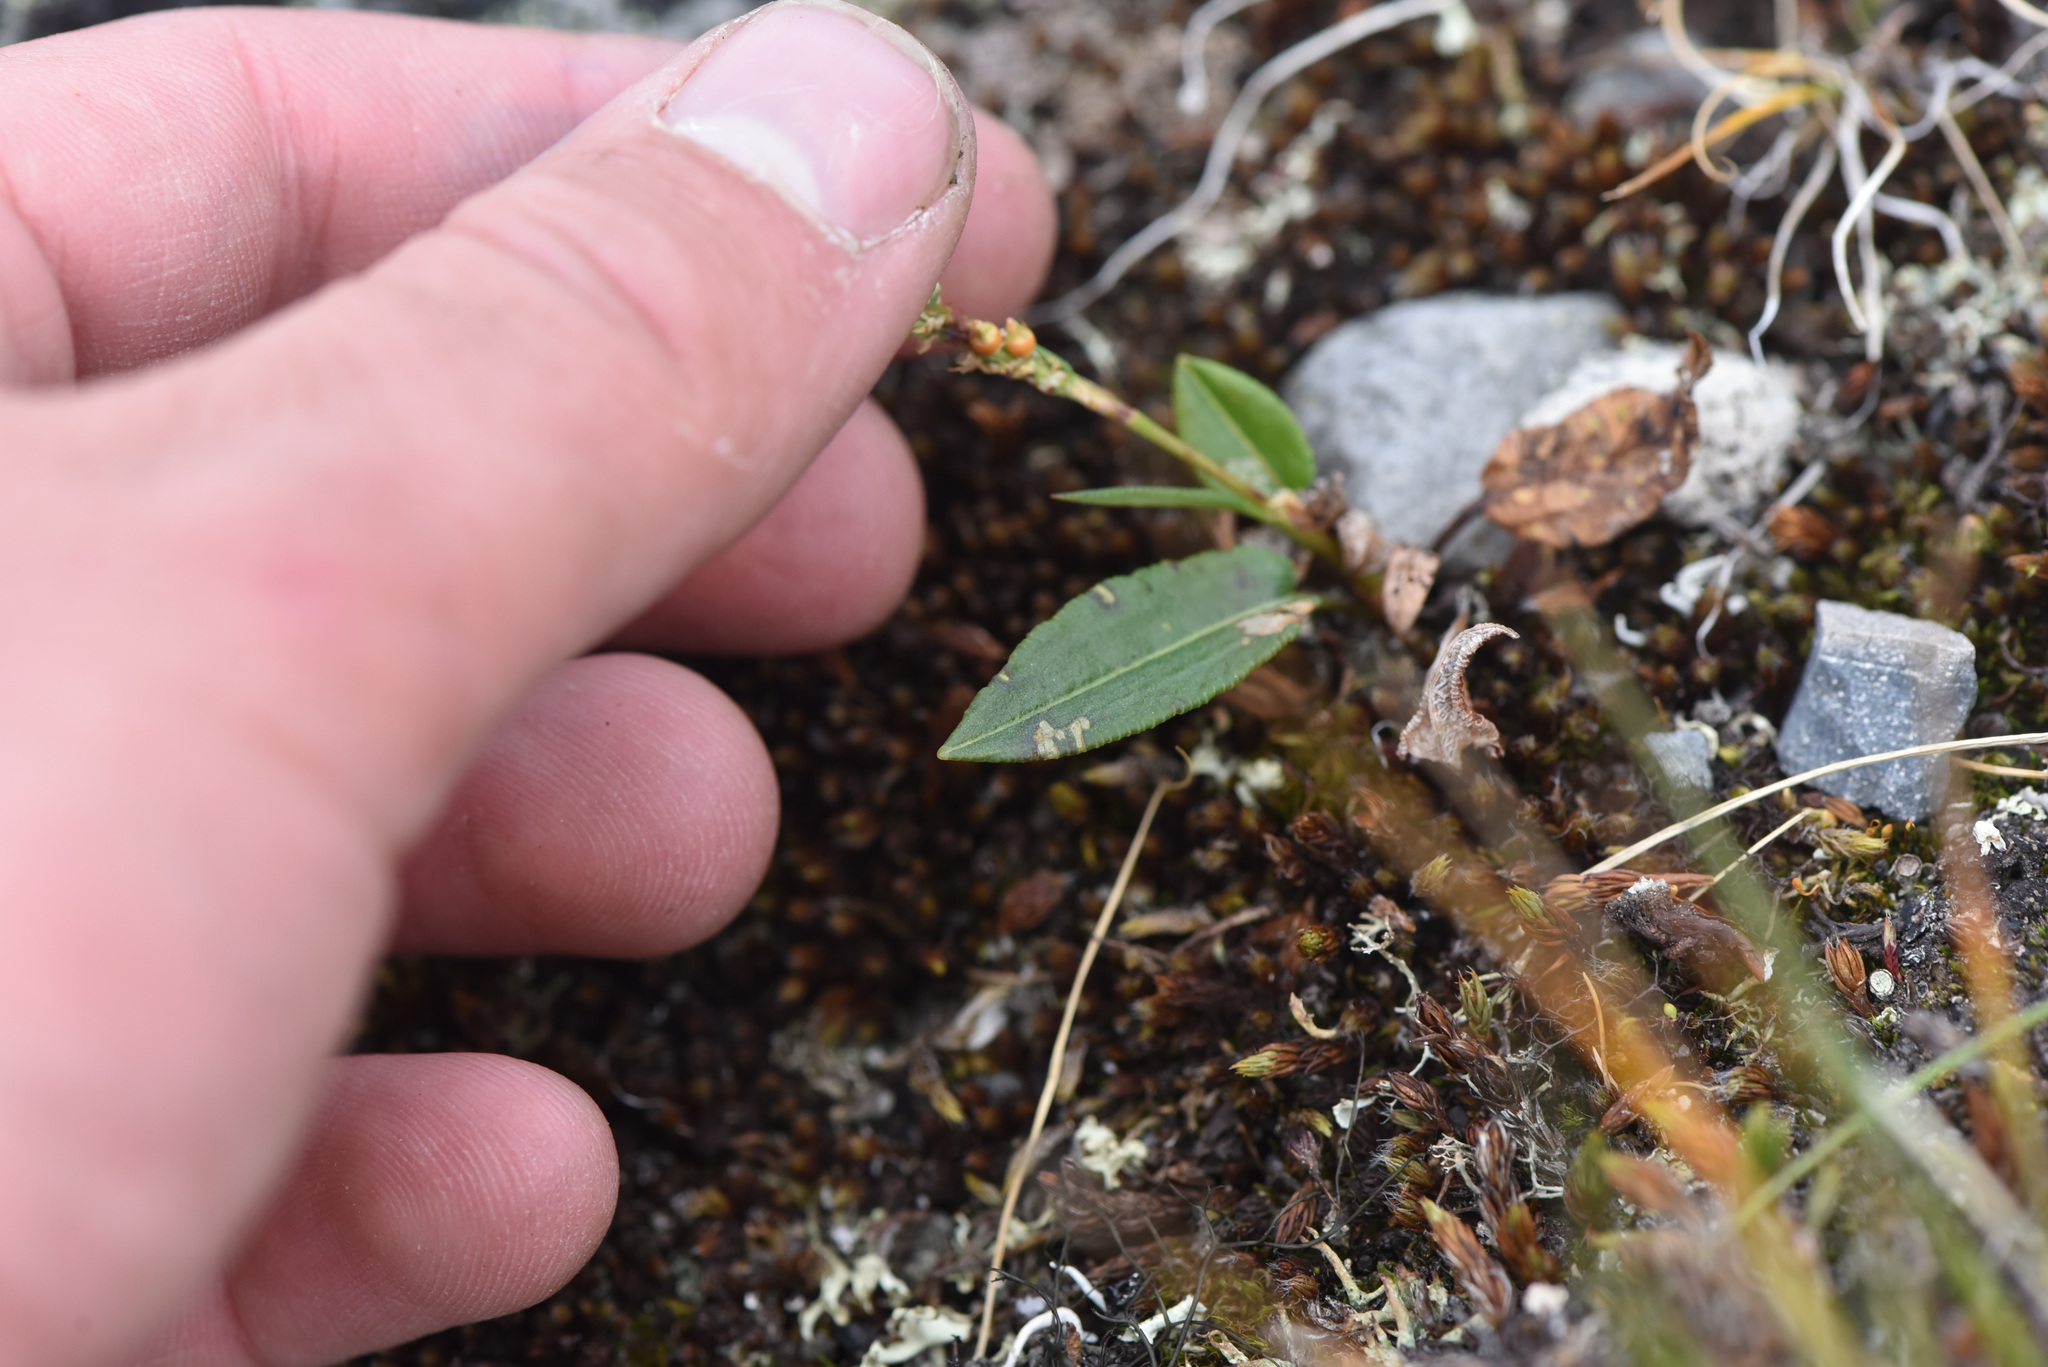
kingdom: Plantae
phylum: Tracheophyta
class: Magnoliopsida
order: Caryophyllales
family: Polygonaceae
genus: Bistorta
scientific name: Bistorta vivipara
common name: Alpine bistort
